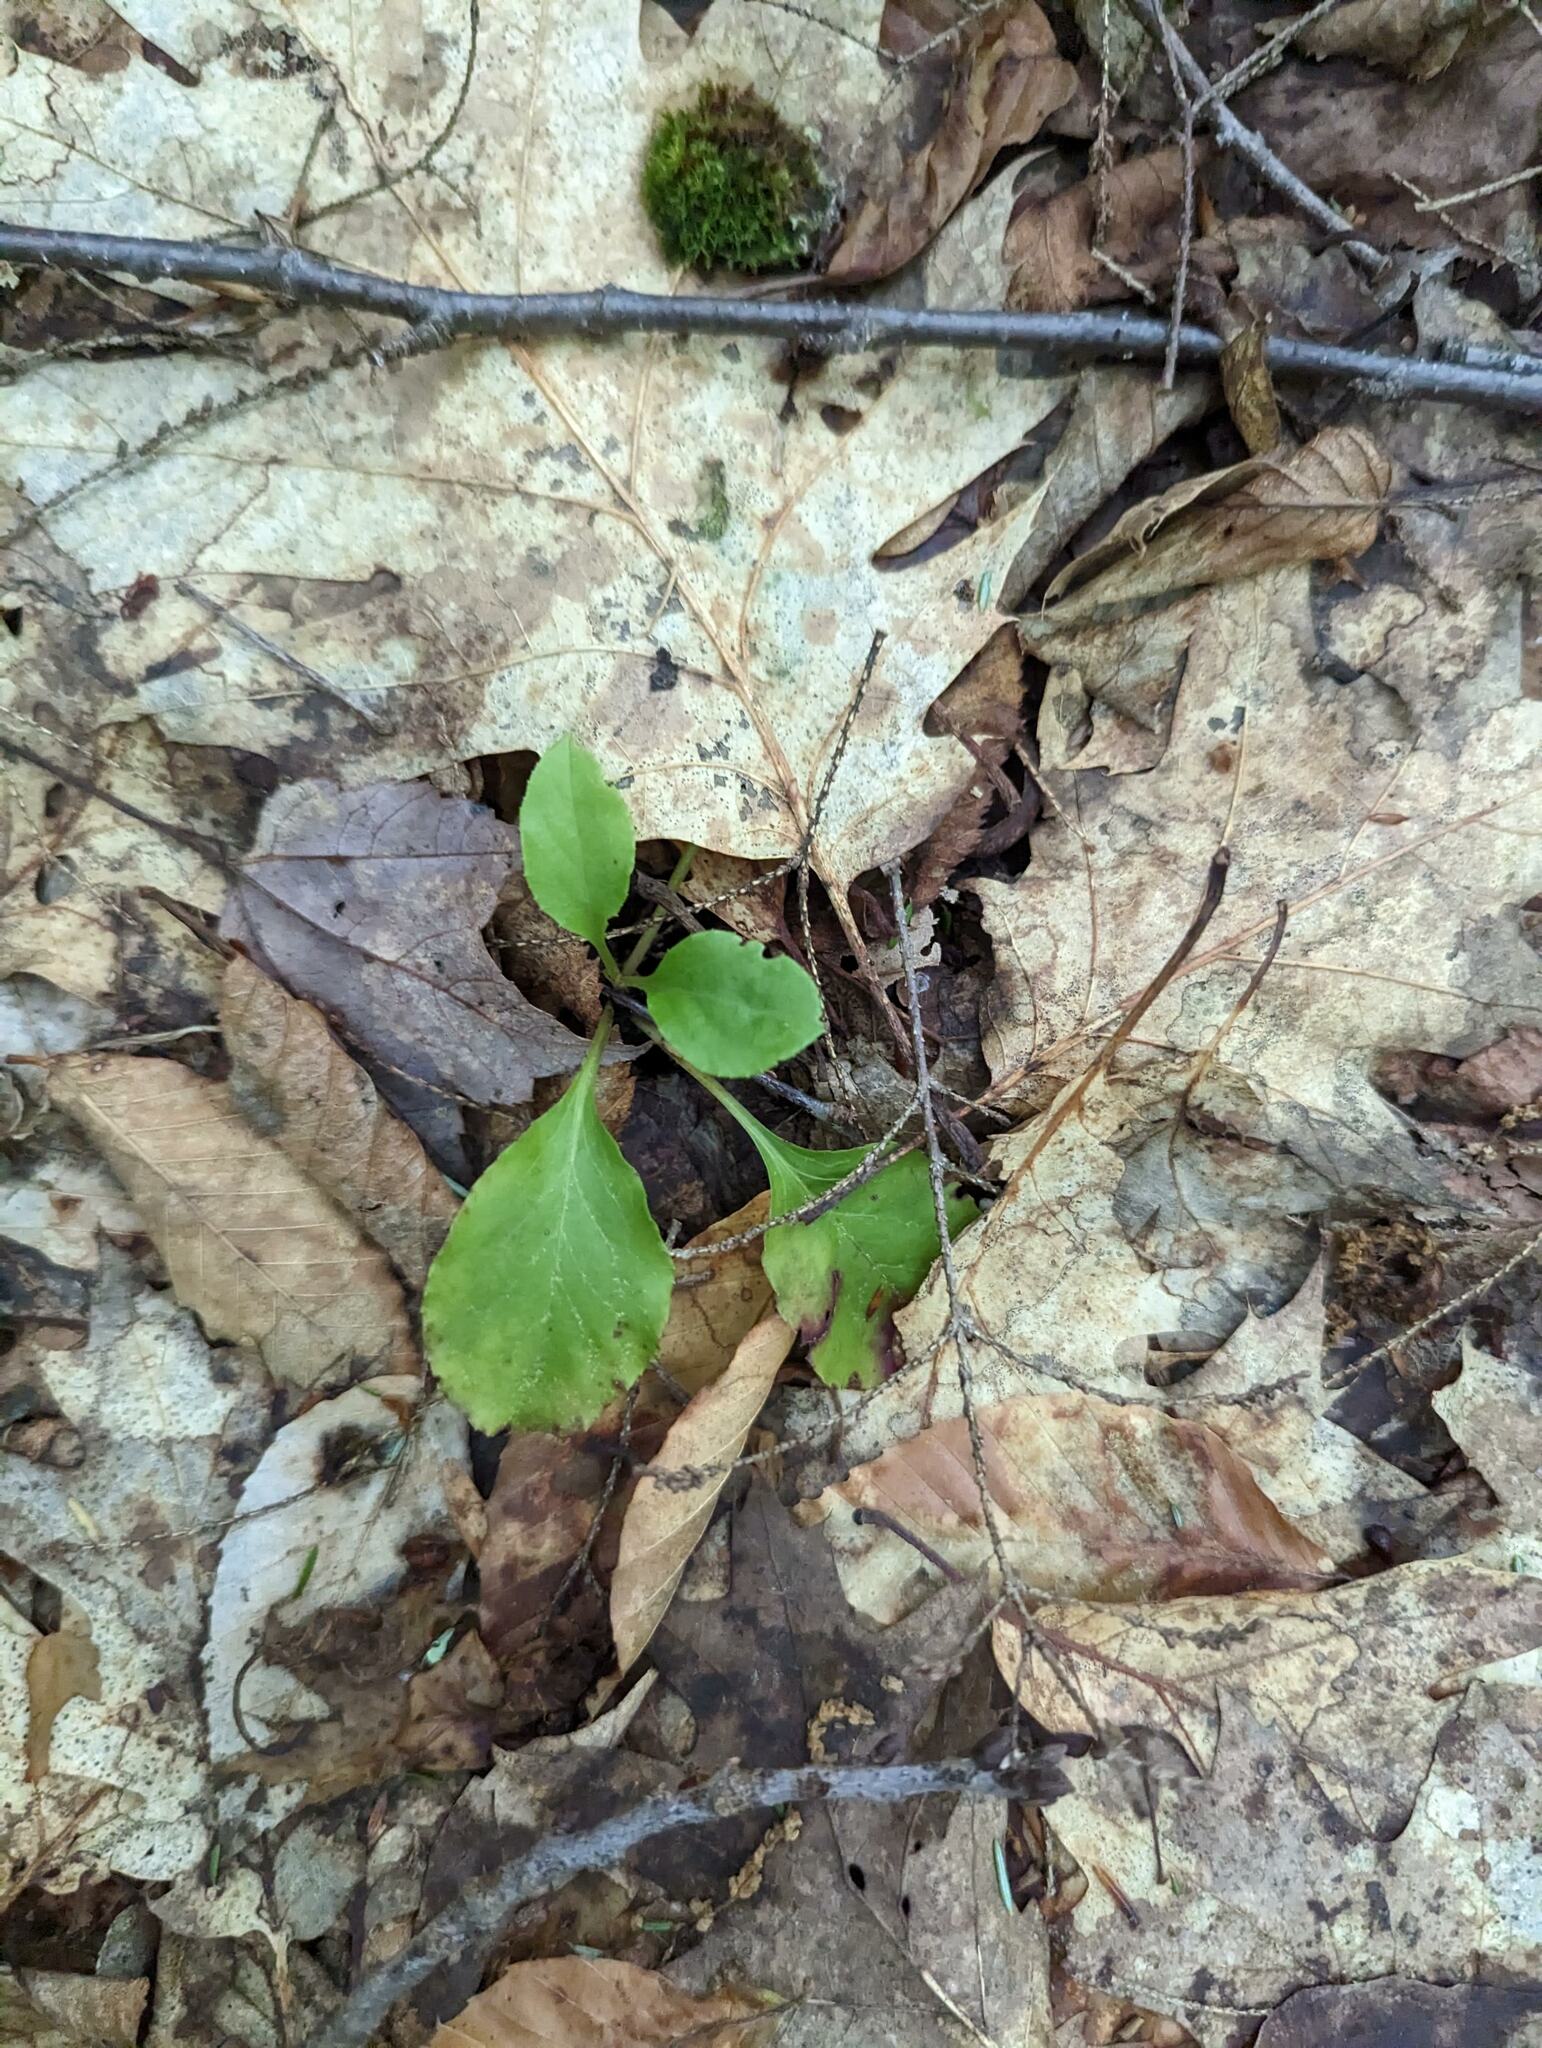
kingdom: Plantae
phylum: Tracheophyta
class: Magnoliopsida
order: Ericales
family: Ericaceae
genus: Pyrola
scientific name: Pyrola elliptica
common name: Shinleaf
